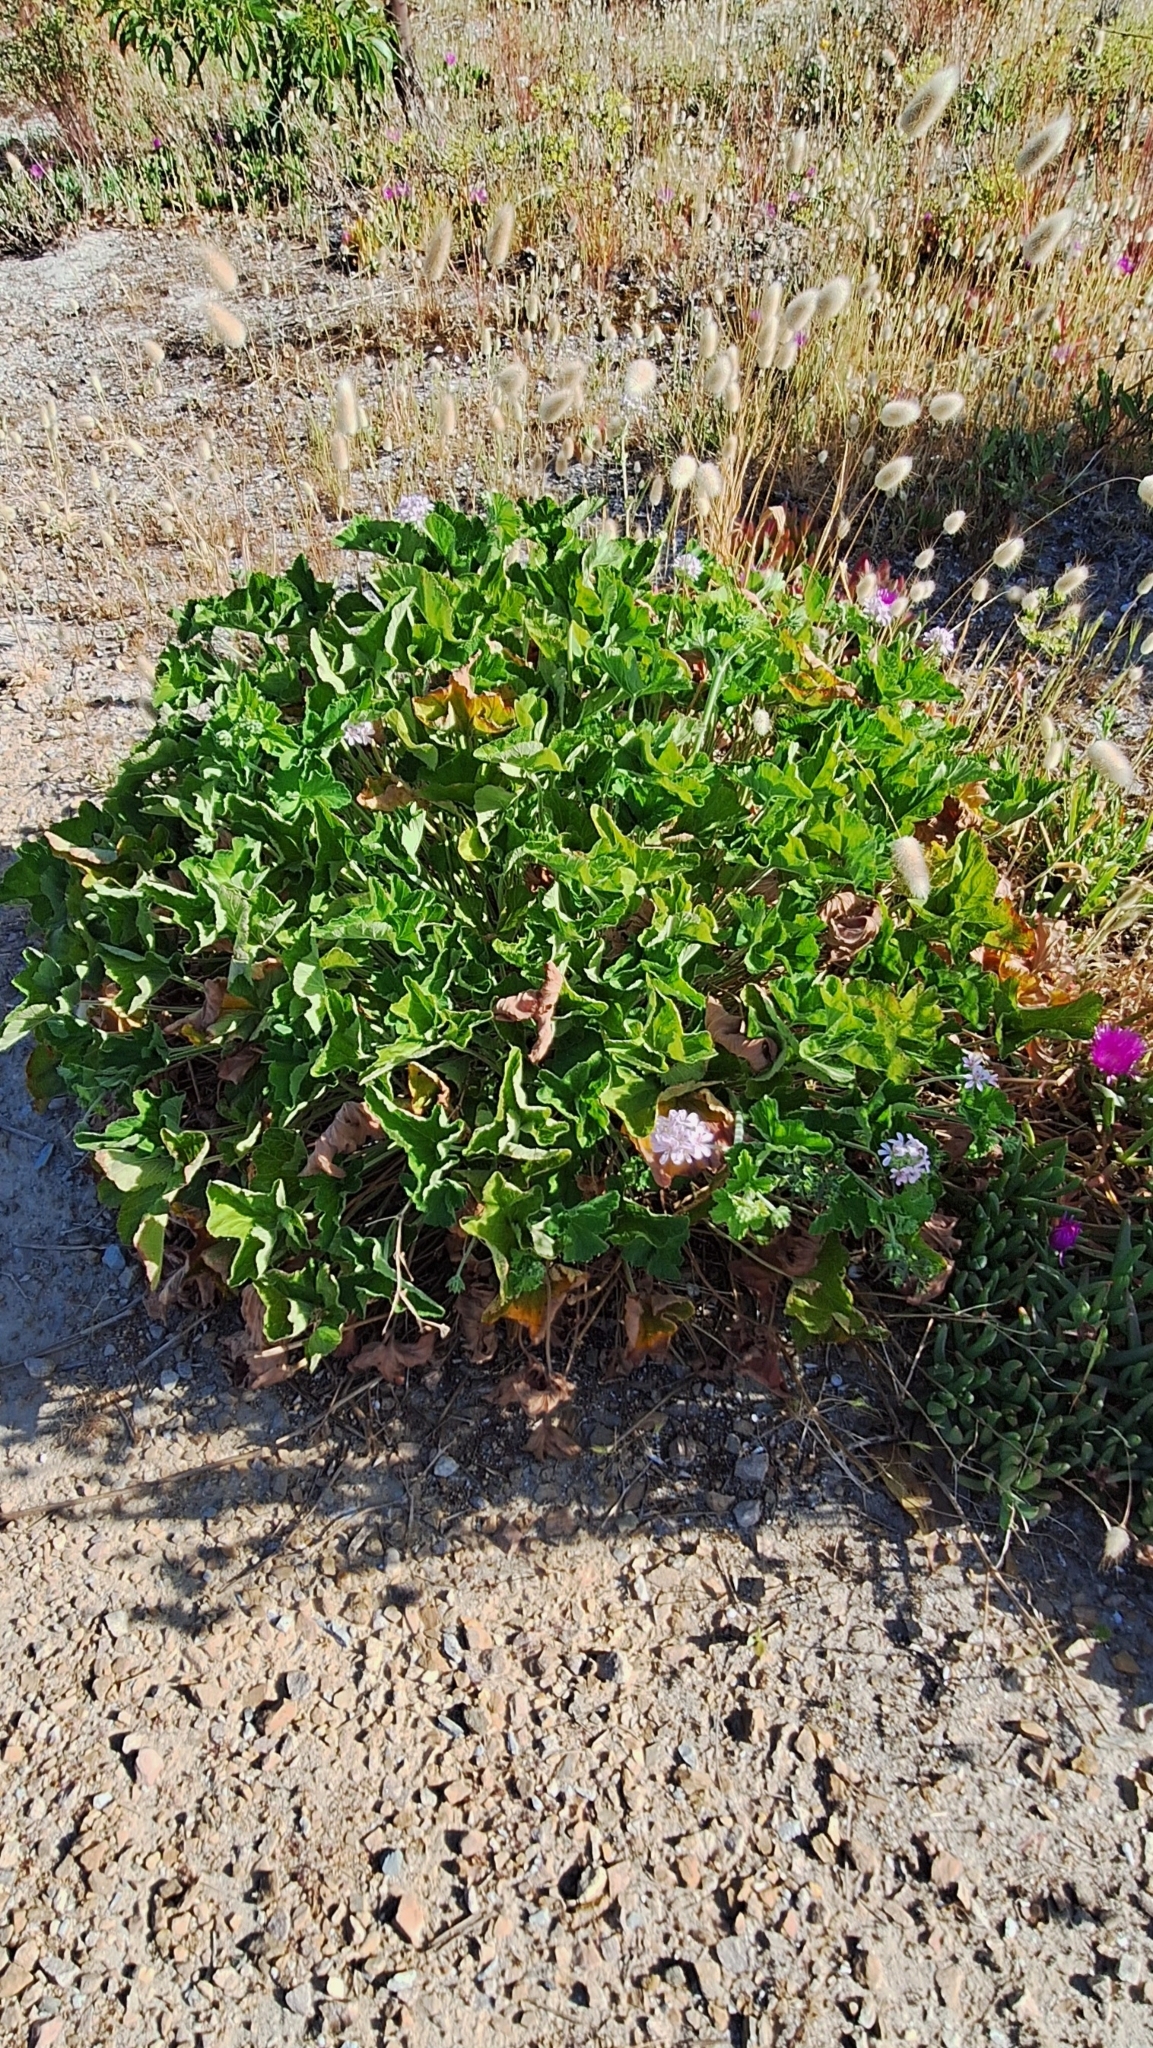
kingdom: Plantae
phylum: Tracheophyta
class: Magnoliopsida
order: Geraniales
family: Geraniaceae
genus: Pelargonium
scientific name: Pelargonium australe
